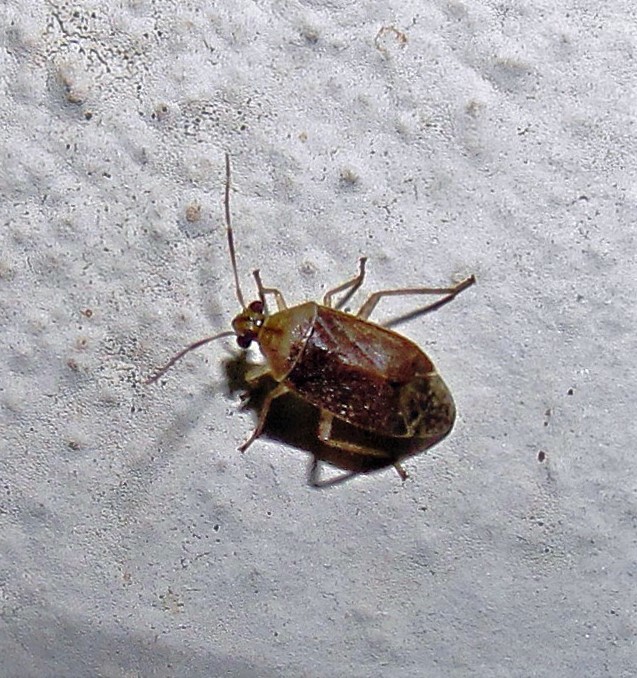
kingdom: Animalia
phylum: Arthropoda
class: Insecta
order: Hemiptera
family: Miridae
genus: Tropidosteptes
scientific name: Tropidosteptes hirsutus
